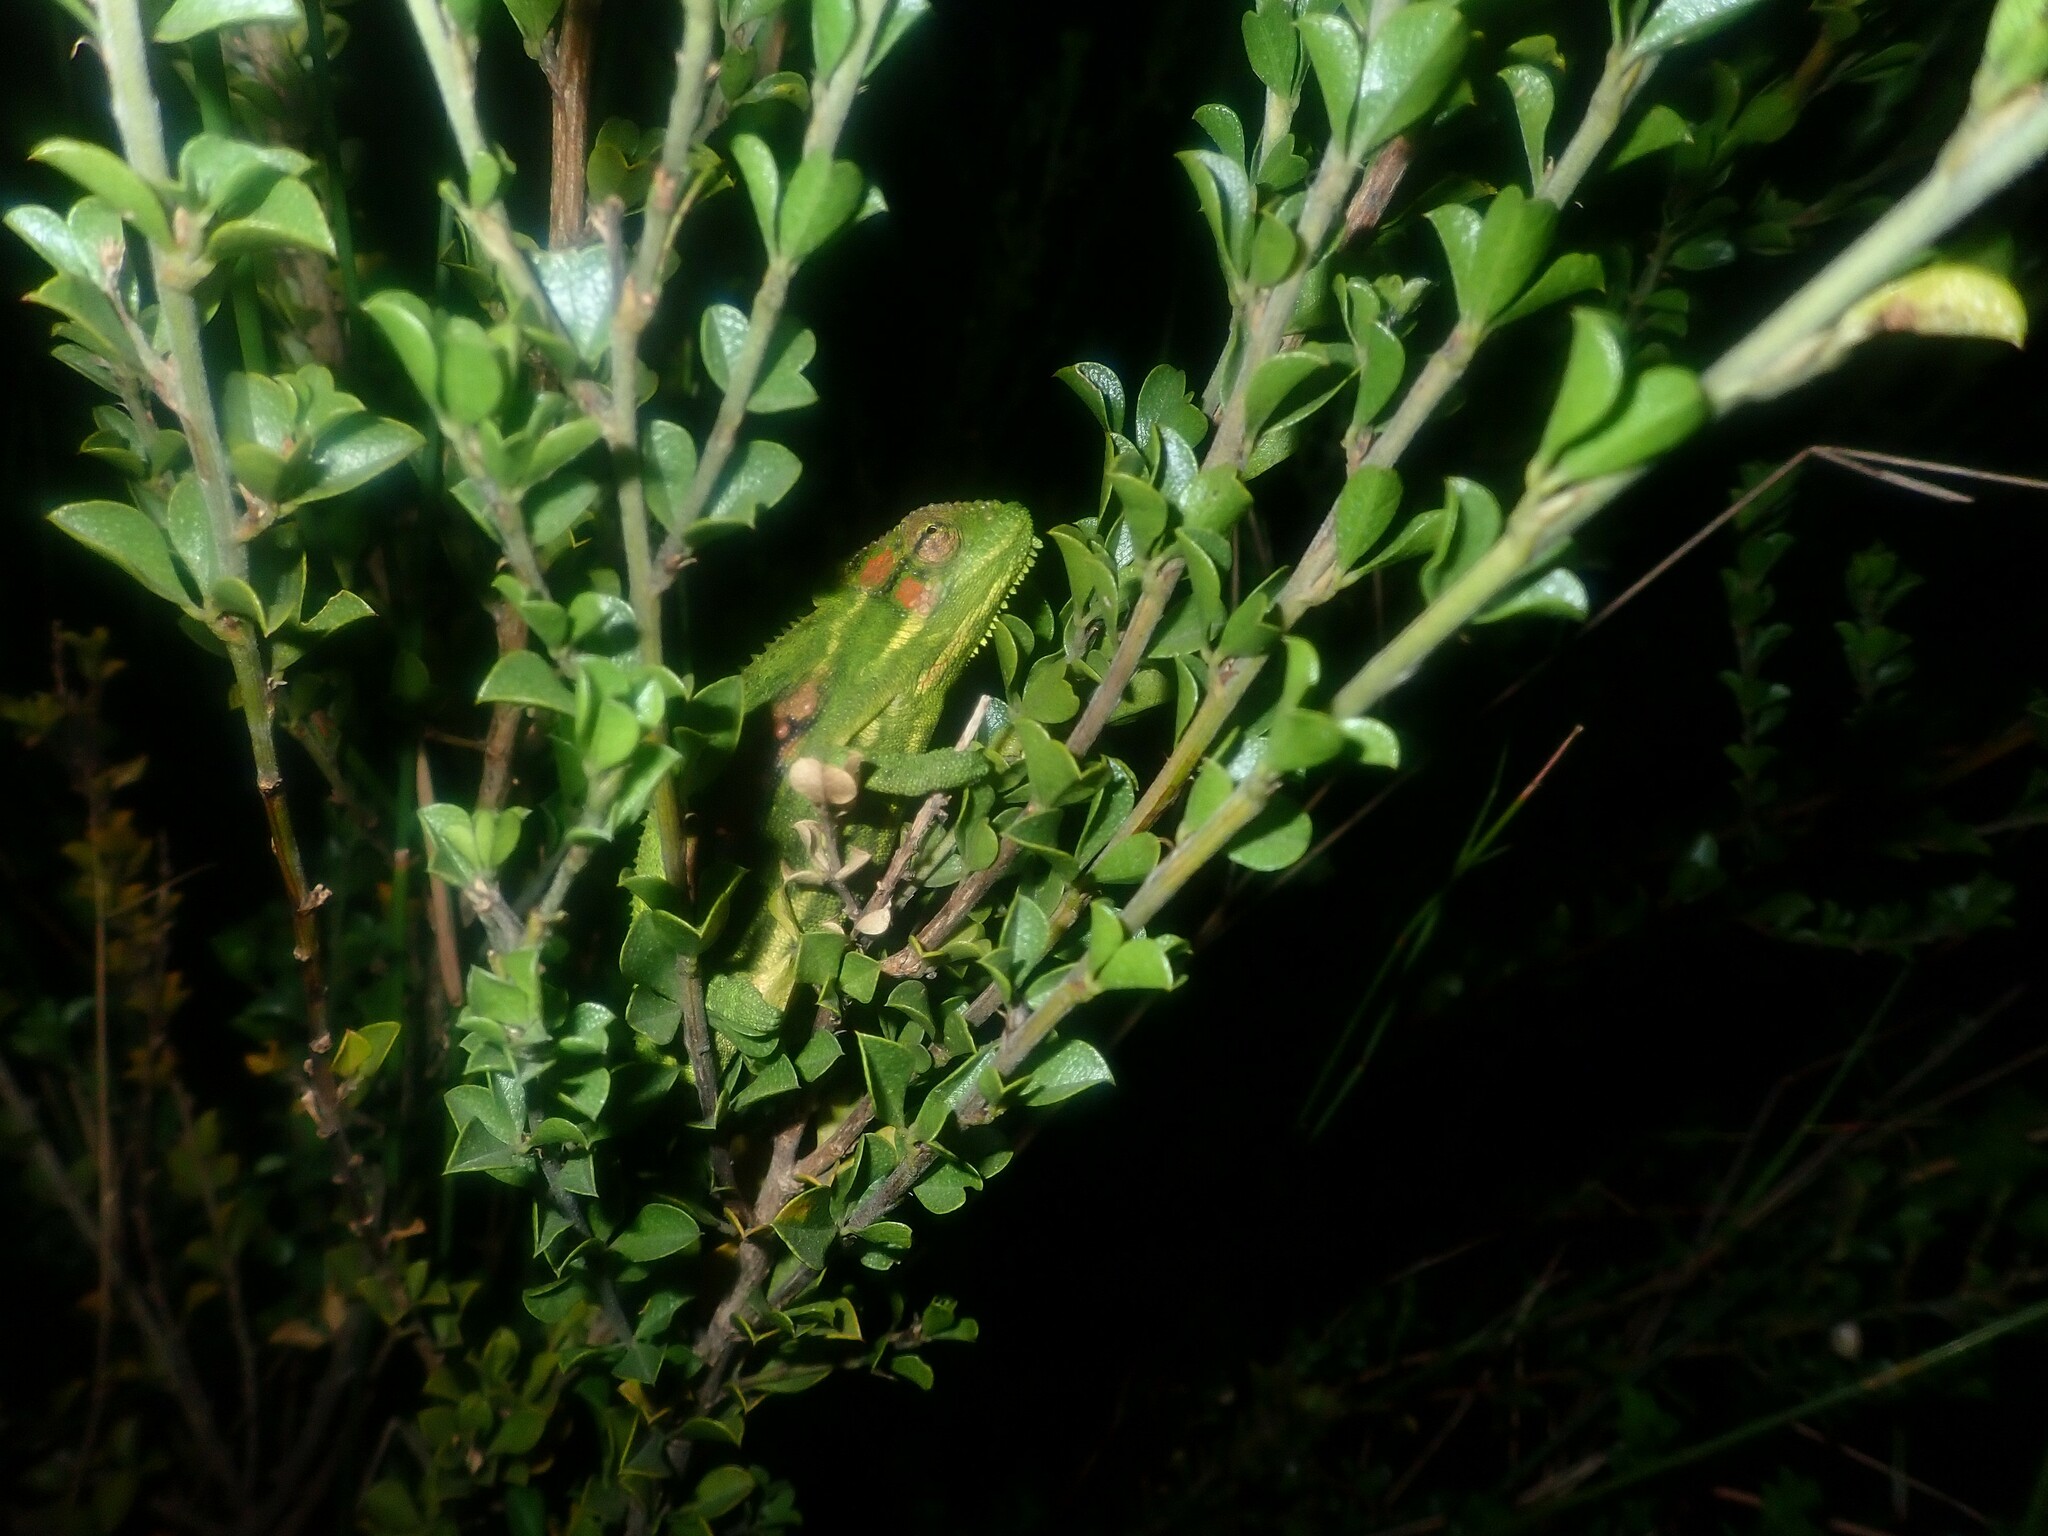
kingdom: Animalia
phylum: Chordata
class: Squamata
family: Chamaeleonidae
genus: Bradypodion
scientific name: Bradypodion pumilum
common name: Cape dwarf chameleon
